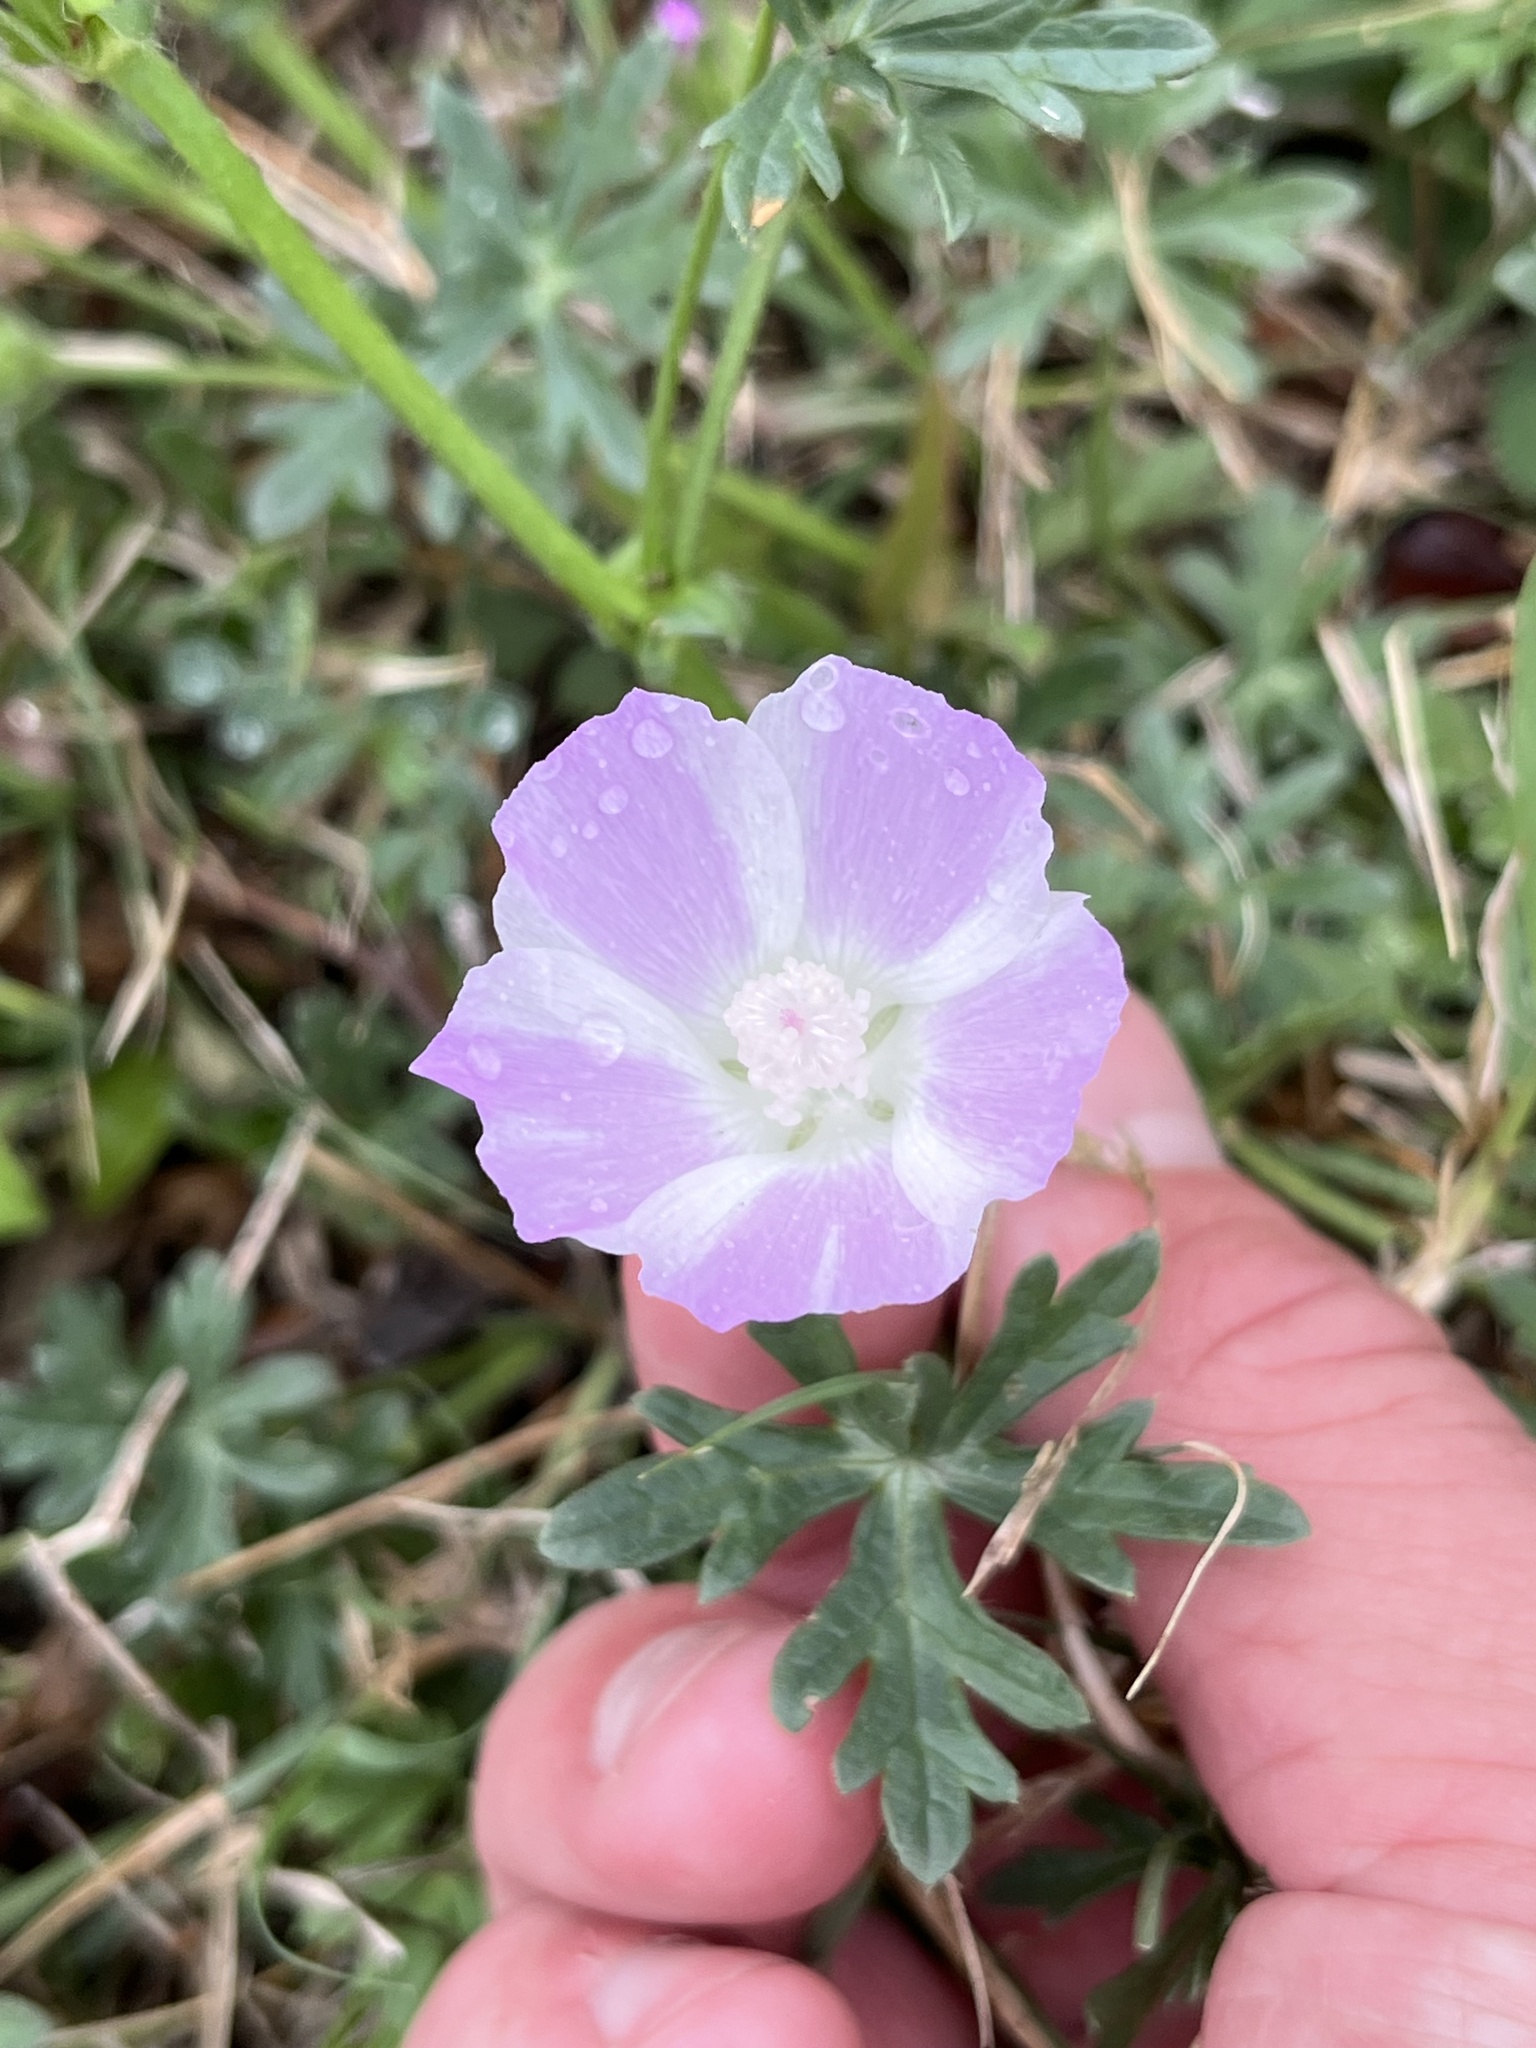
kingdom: Plantae
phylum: Tracheophyta
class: Magnoliopsida
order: Malvales
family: Malvaceae
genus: Callirhoe
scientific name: Callirhoe involucrata
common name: Purple poppy-mallow
